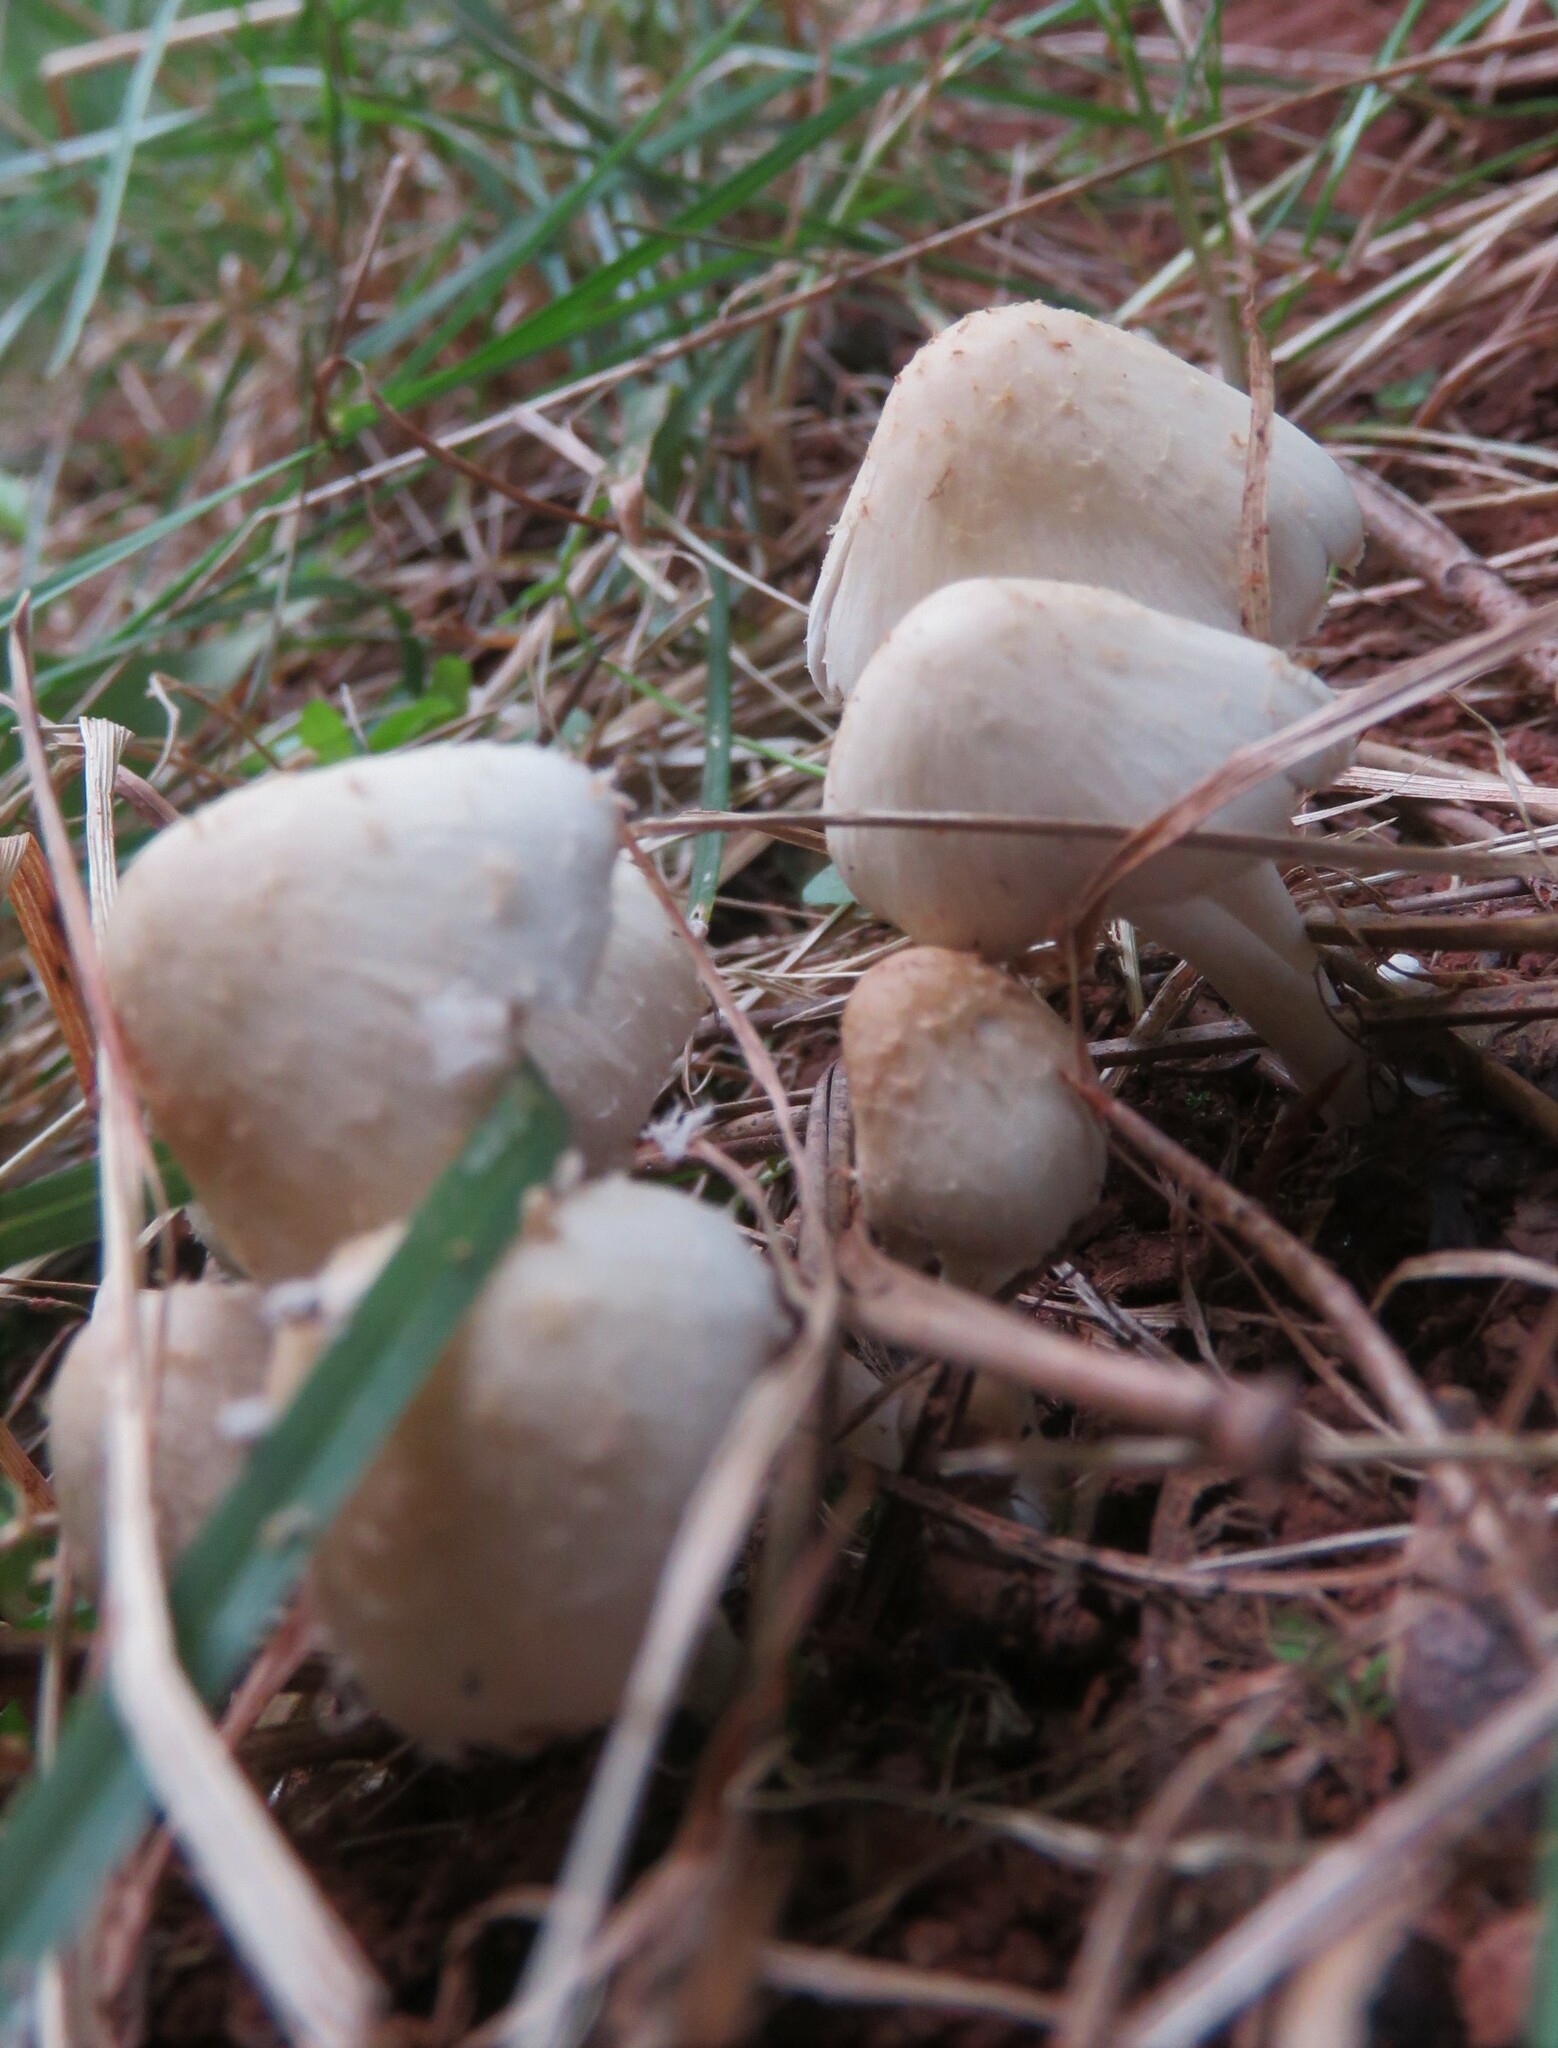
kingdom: Fungi
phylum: Basidiomycota
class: Agaricomycetes
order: Agaricales
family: Psathyrellaceae
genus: Candolleomyces
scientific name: Candolleomyces candolleanus
